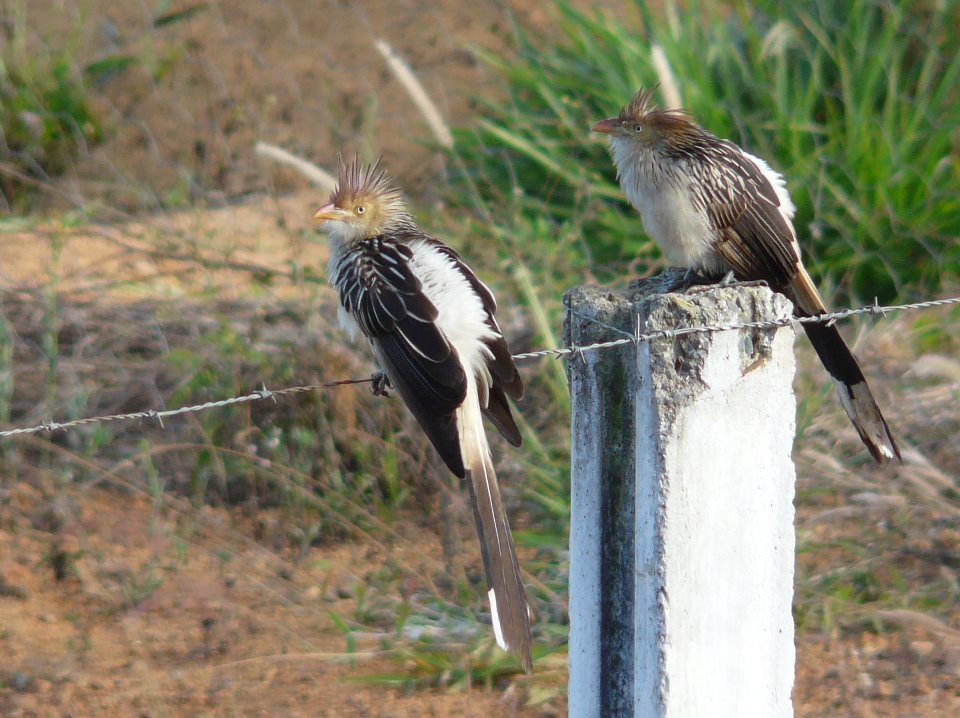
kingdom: Animalia
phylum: Chordata
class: Aves
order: Cuculiformes
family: Cuculidae
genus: Guira
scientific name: Guira guira
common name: Guira cuckoo
